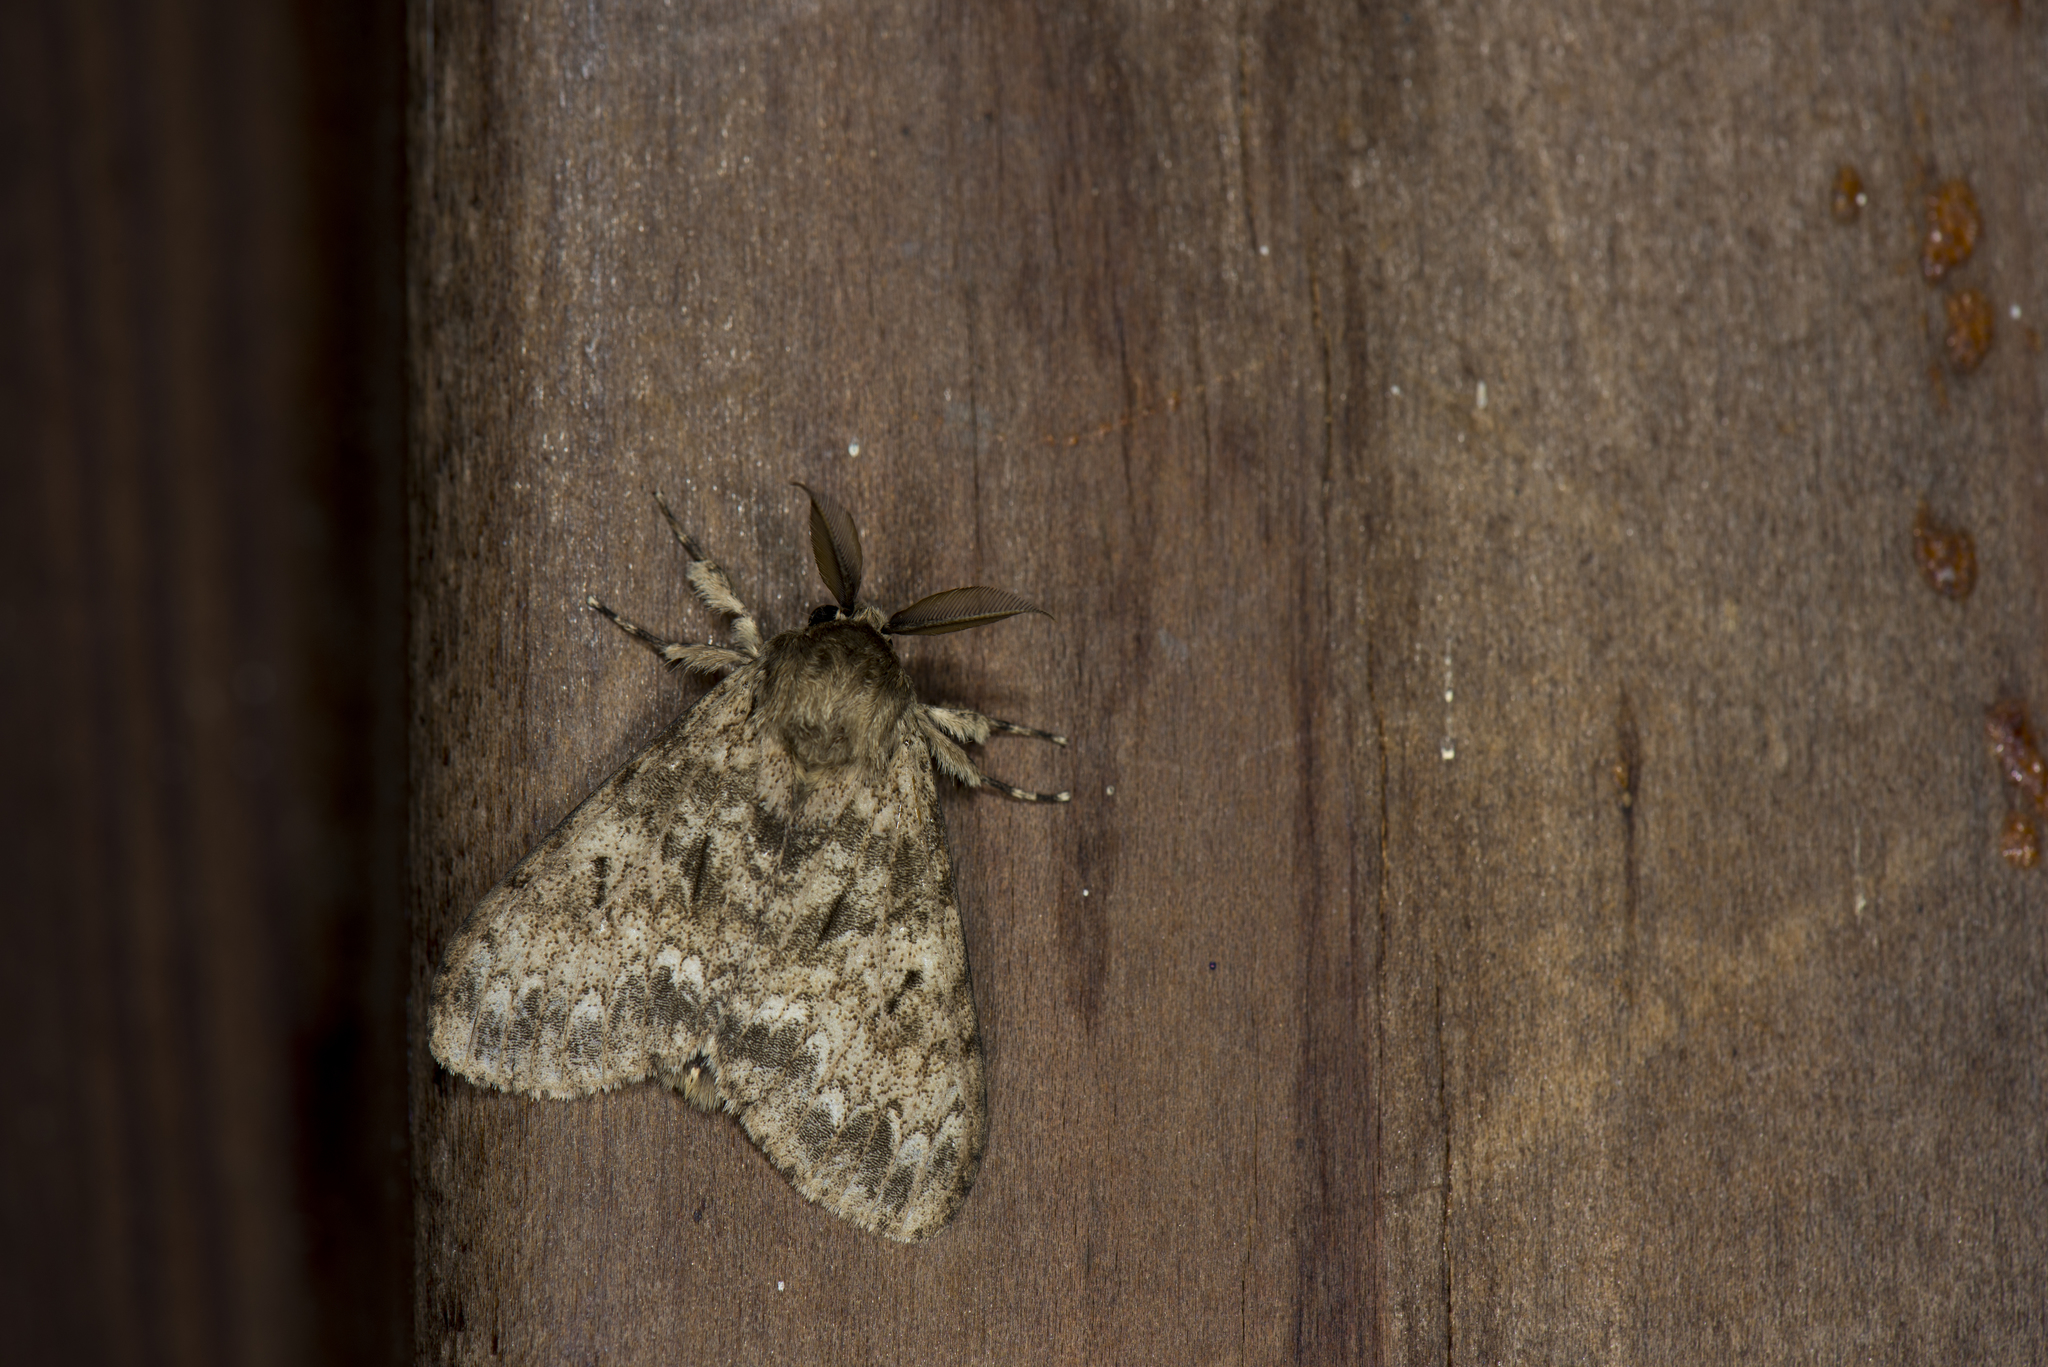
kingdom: Animalia
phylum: Arthropoda
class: Insecta
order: Lepidoptera
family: Erebidae
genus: Lymantria
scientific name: Lymantria serva
